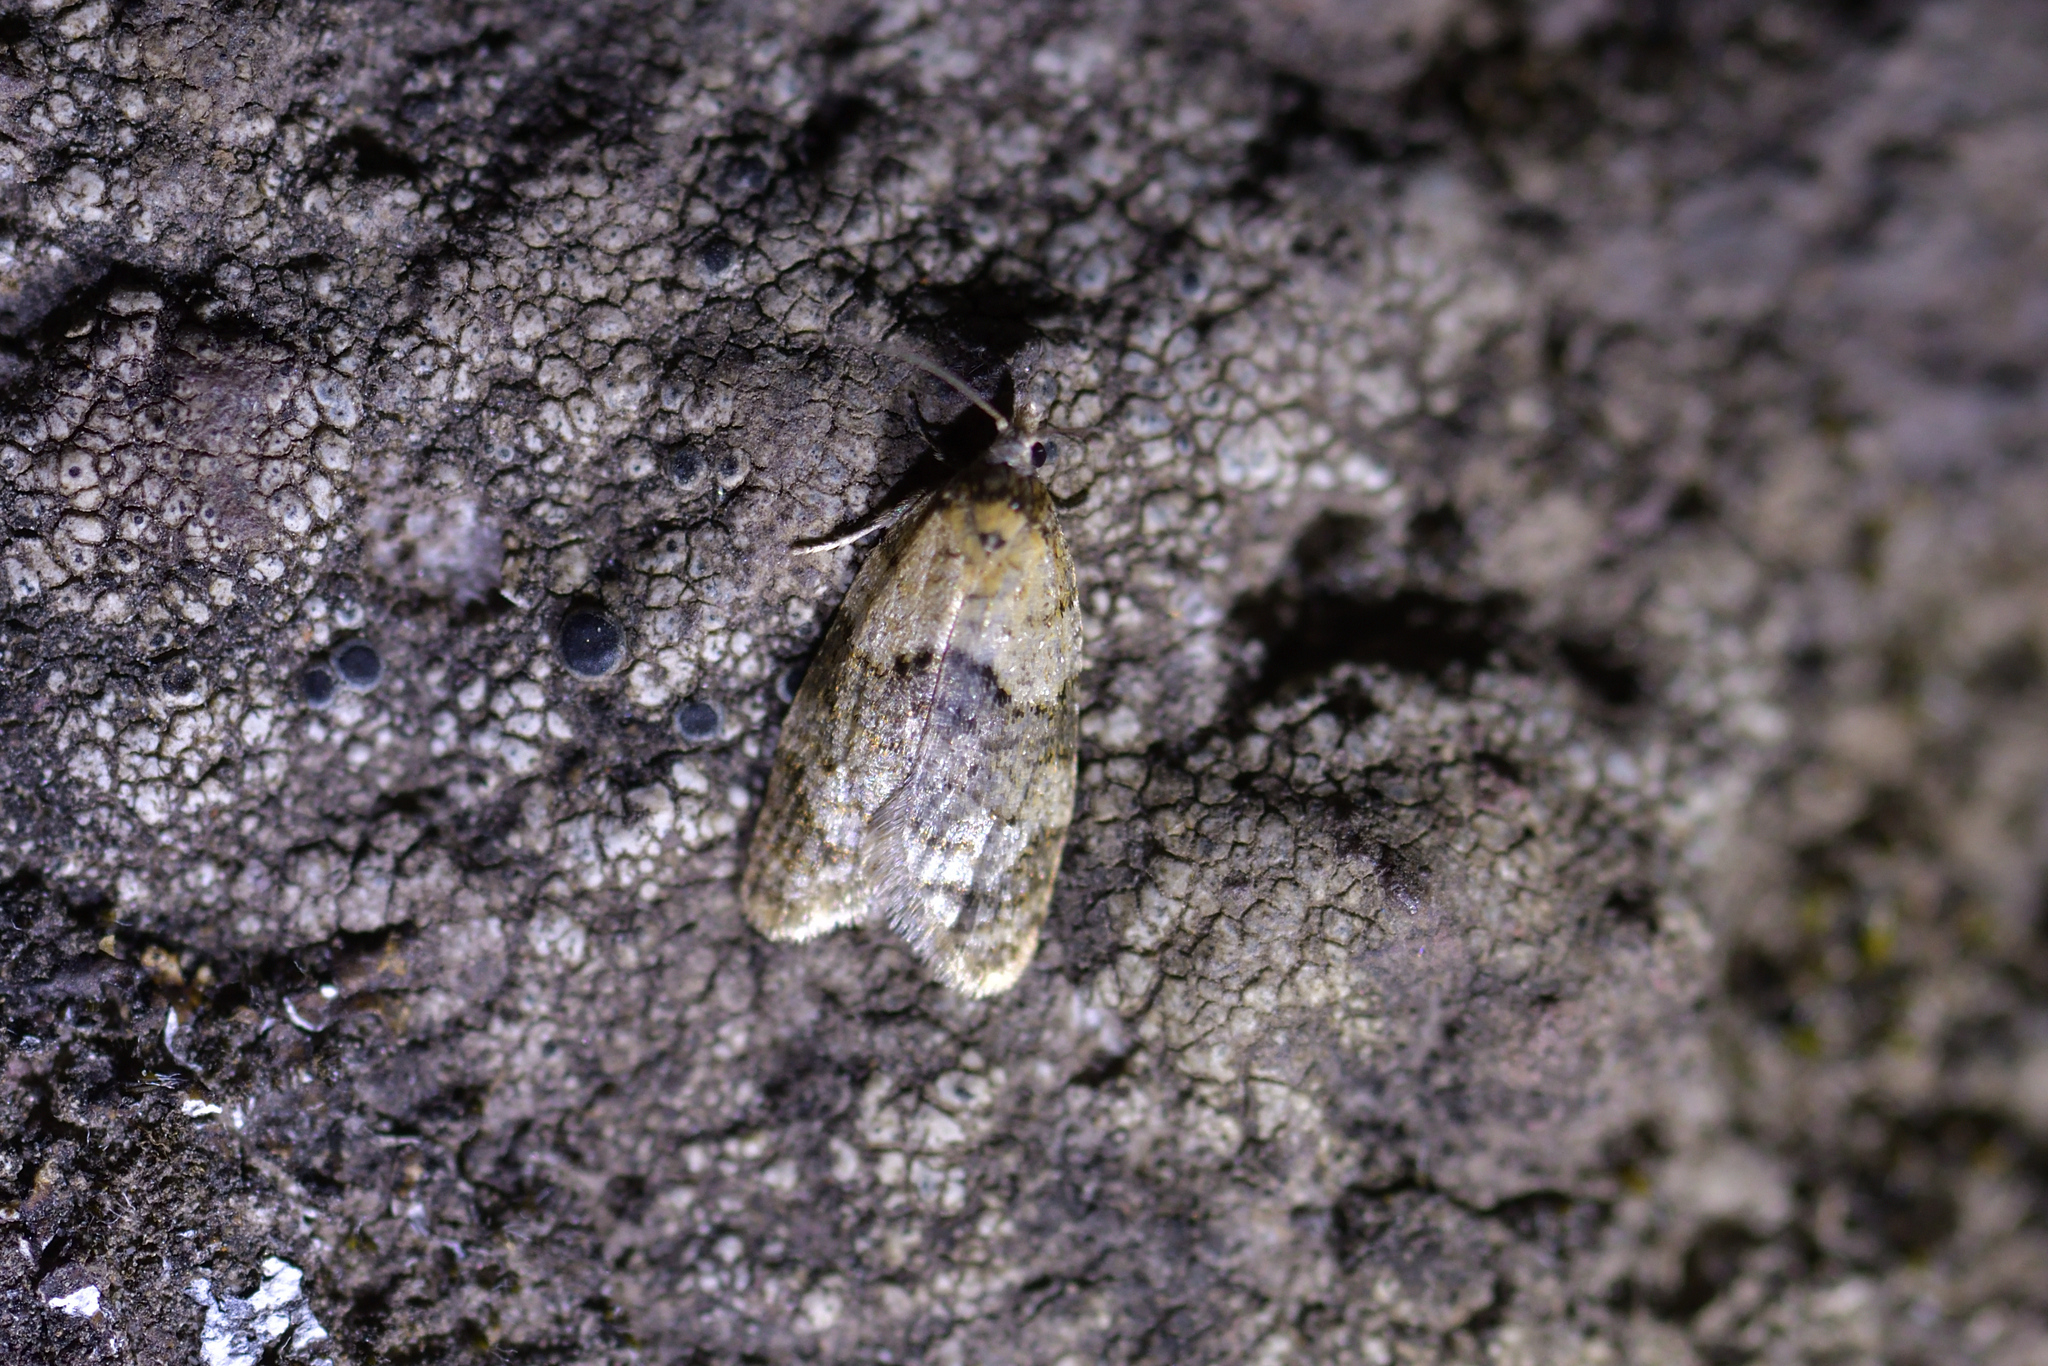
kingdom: Animalia
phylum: Arthropoda
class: Insecta
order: Lepidoptera
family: Tortricidae
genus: Dipterina
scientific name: Dipterina imbriferana
